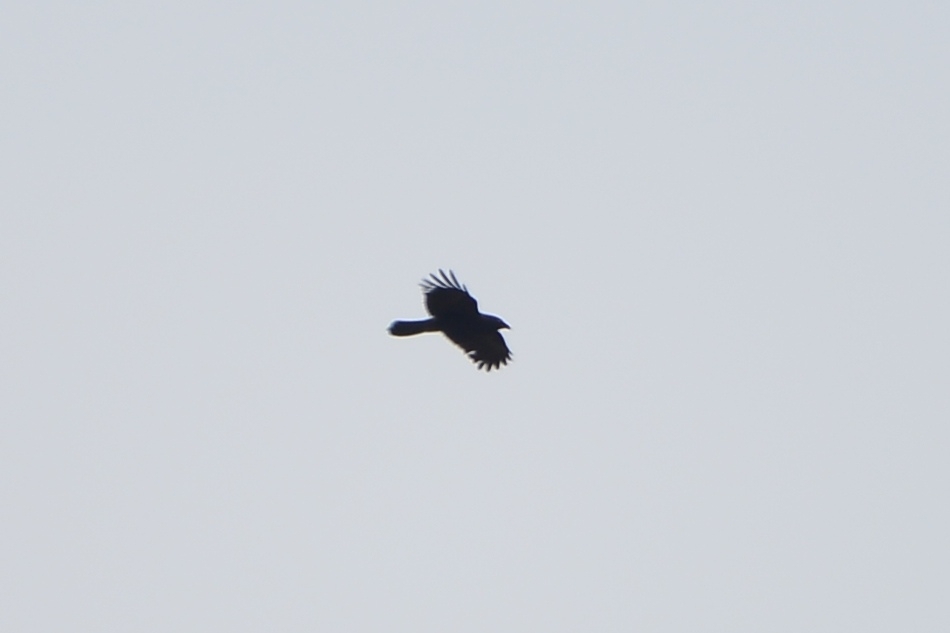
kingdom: Animalia
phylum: Chordata
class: Aves
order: Passeriformes
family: Corvidae
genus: Corvus
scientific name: Corvus corax
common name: Common raven
